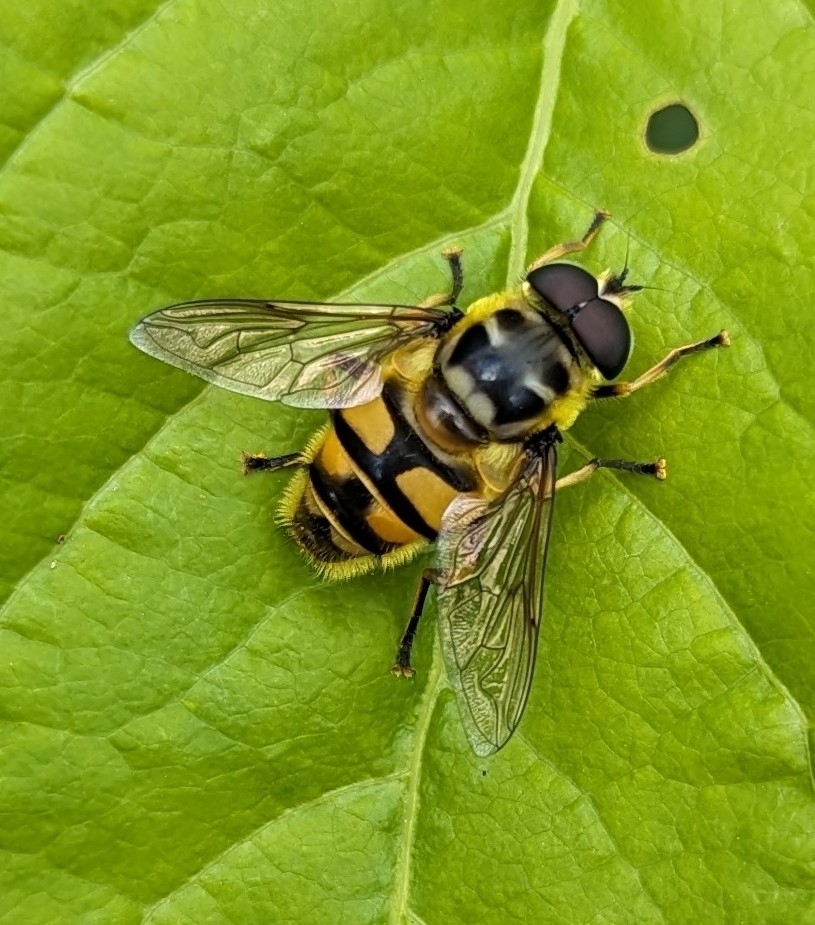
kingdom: Animalia
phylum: Arthropoda
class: Insecta
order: Diptera
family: Syrphidae
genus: Myathropa
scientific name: Myathropa florea
